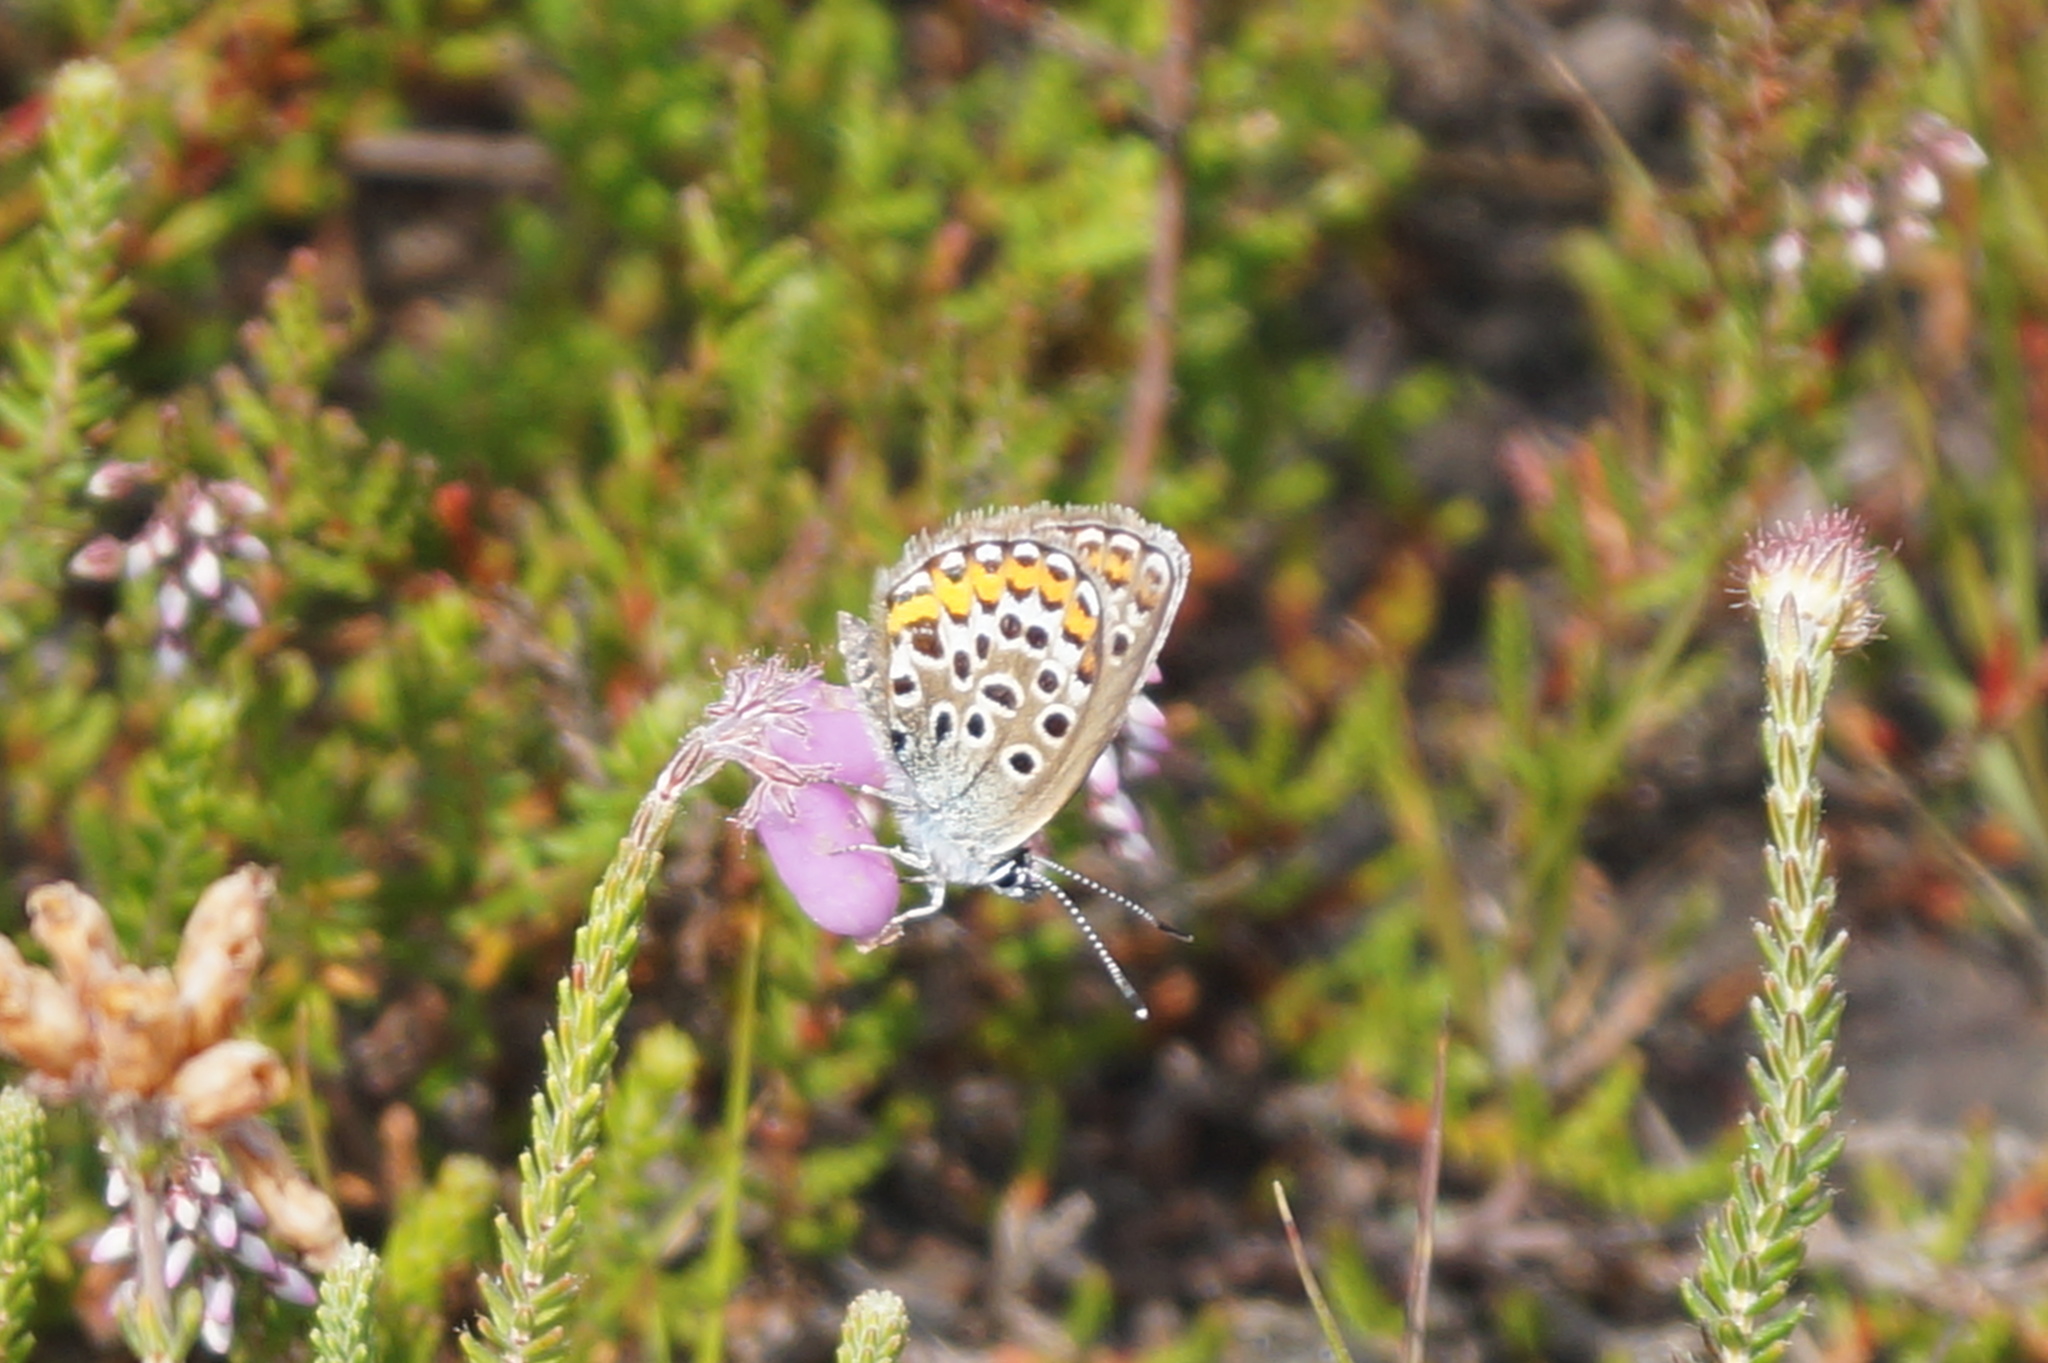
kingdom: Animalia
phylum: Arthropoda
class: Insecta
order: Lepidoptera
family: Lycaenidae
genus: Plebejus
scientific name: Plebejus argus
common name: Silver-studded blue
